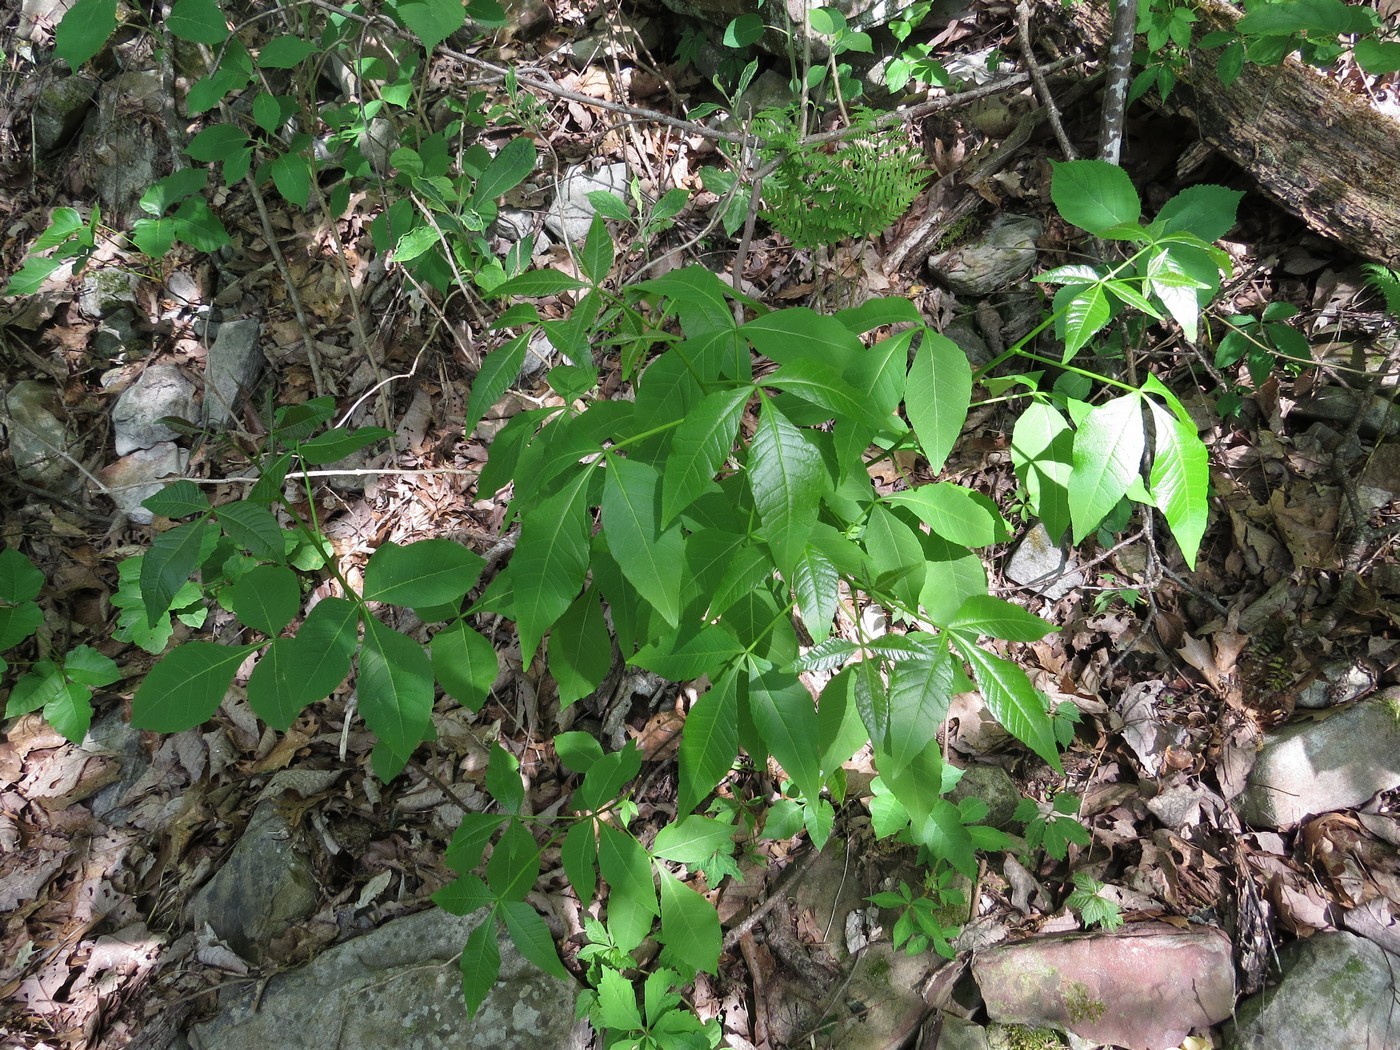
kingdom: Plantae
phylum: Tracheophyta
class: Magnoliopsida
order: Sapindales
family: Rutaceae
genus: Ptelea
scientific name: Ptelea trifoliata
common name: Common hop-tree
